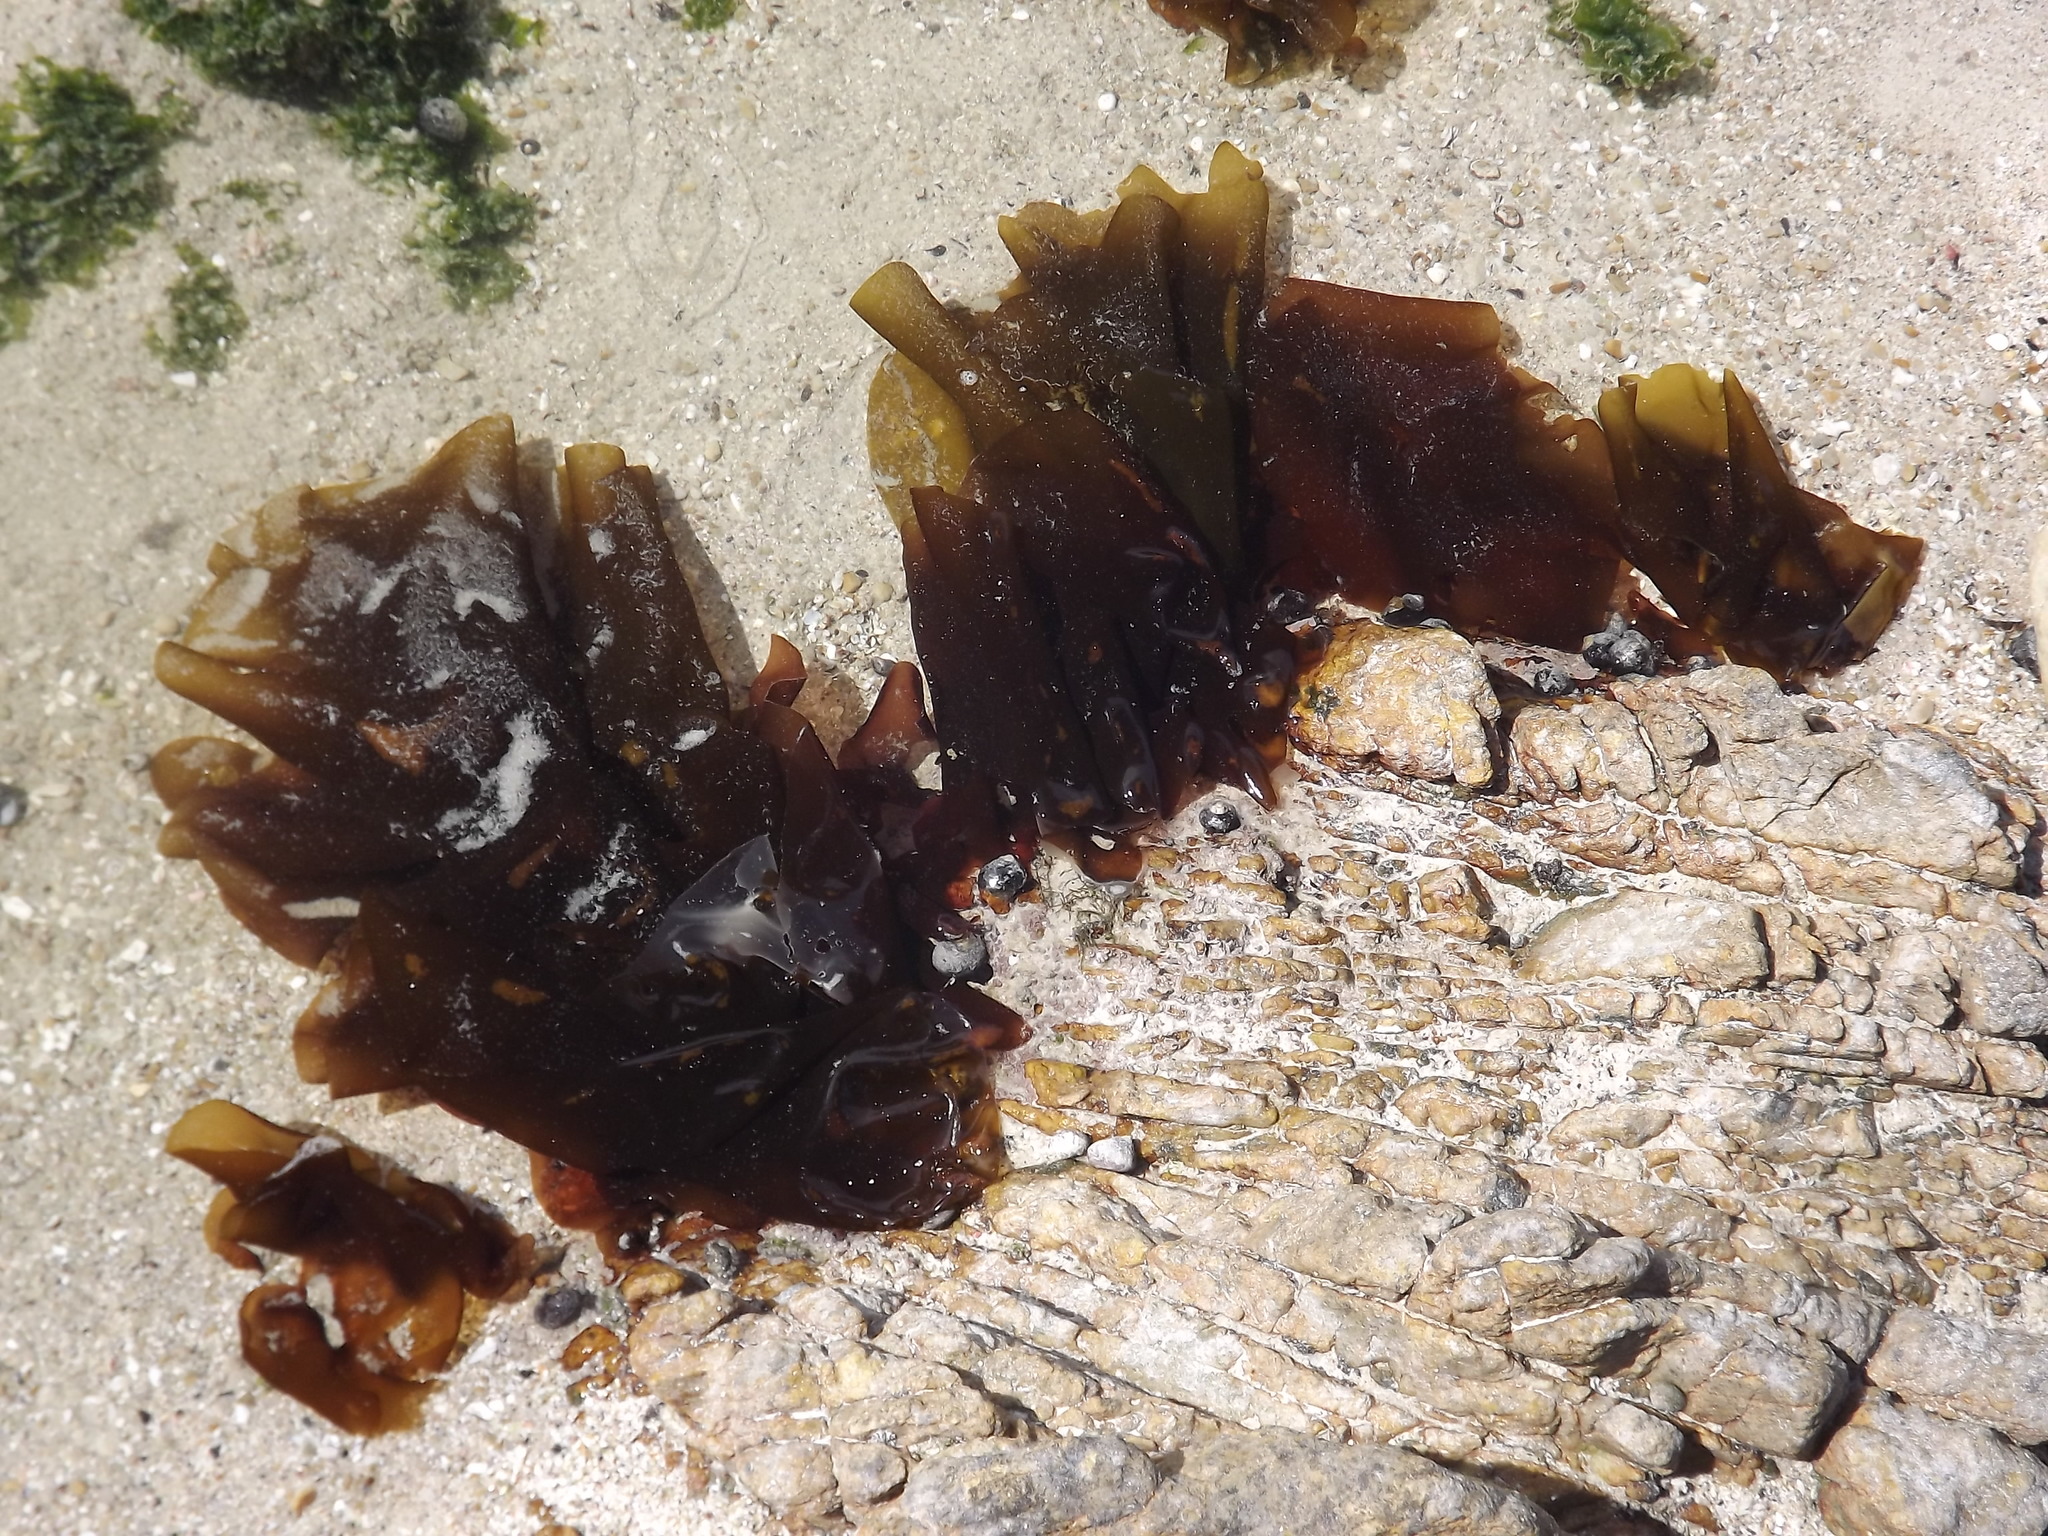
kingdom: Plantae
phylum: Rhodophyta
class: Florideophyceae
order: Halymeniales
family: Halymeniaceae
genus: Pachymenia
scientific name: Pachymenia
